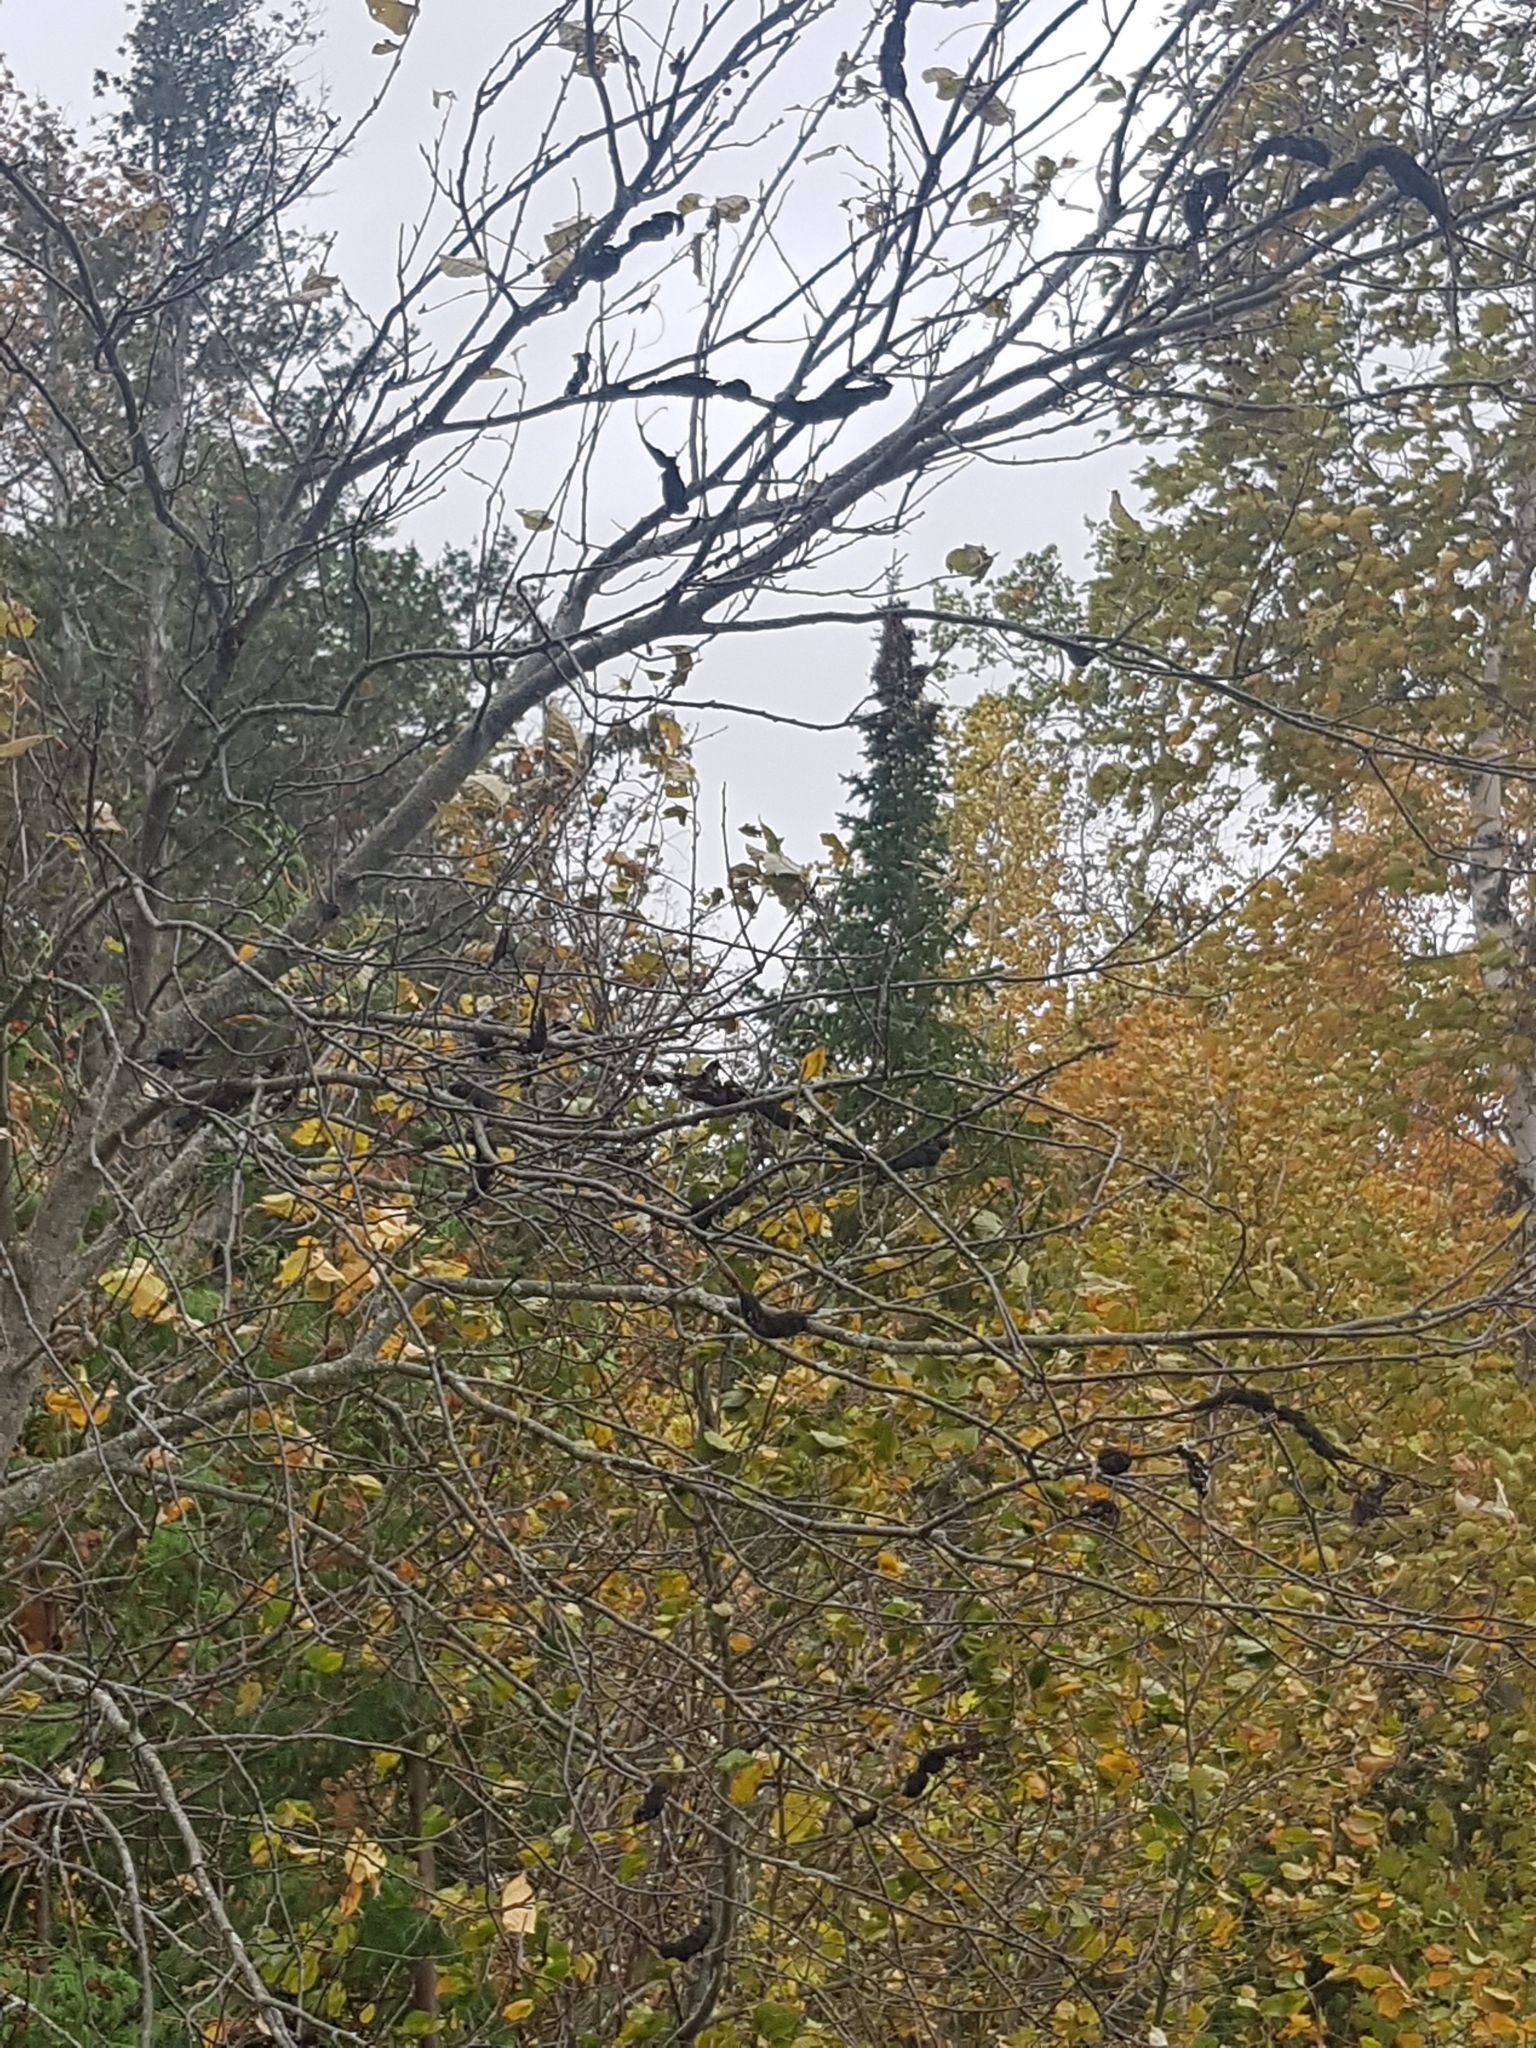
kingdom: Fungi
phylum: Ascomycota
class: Dothideomycetes
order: Venturiales
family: Venturiaceae
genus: Apiosporina
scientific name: Apiosporina morbosa
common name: Black knot
